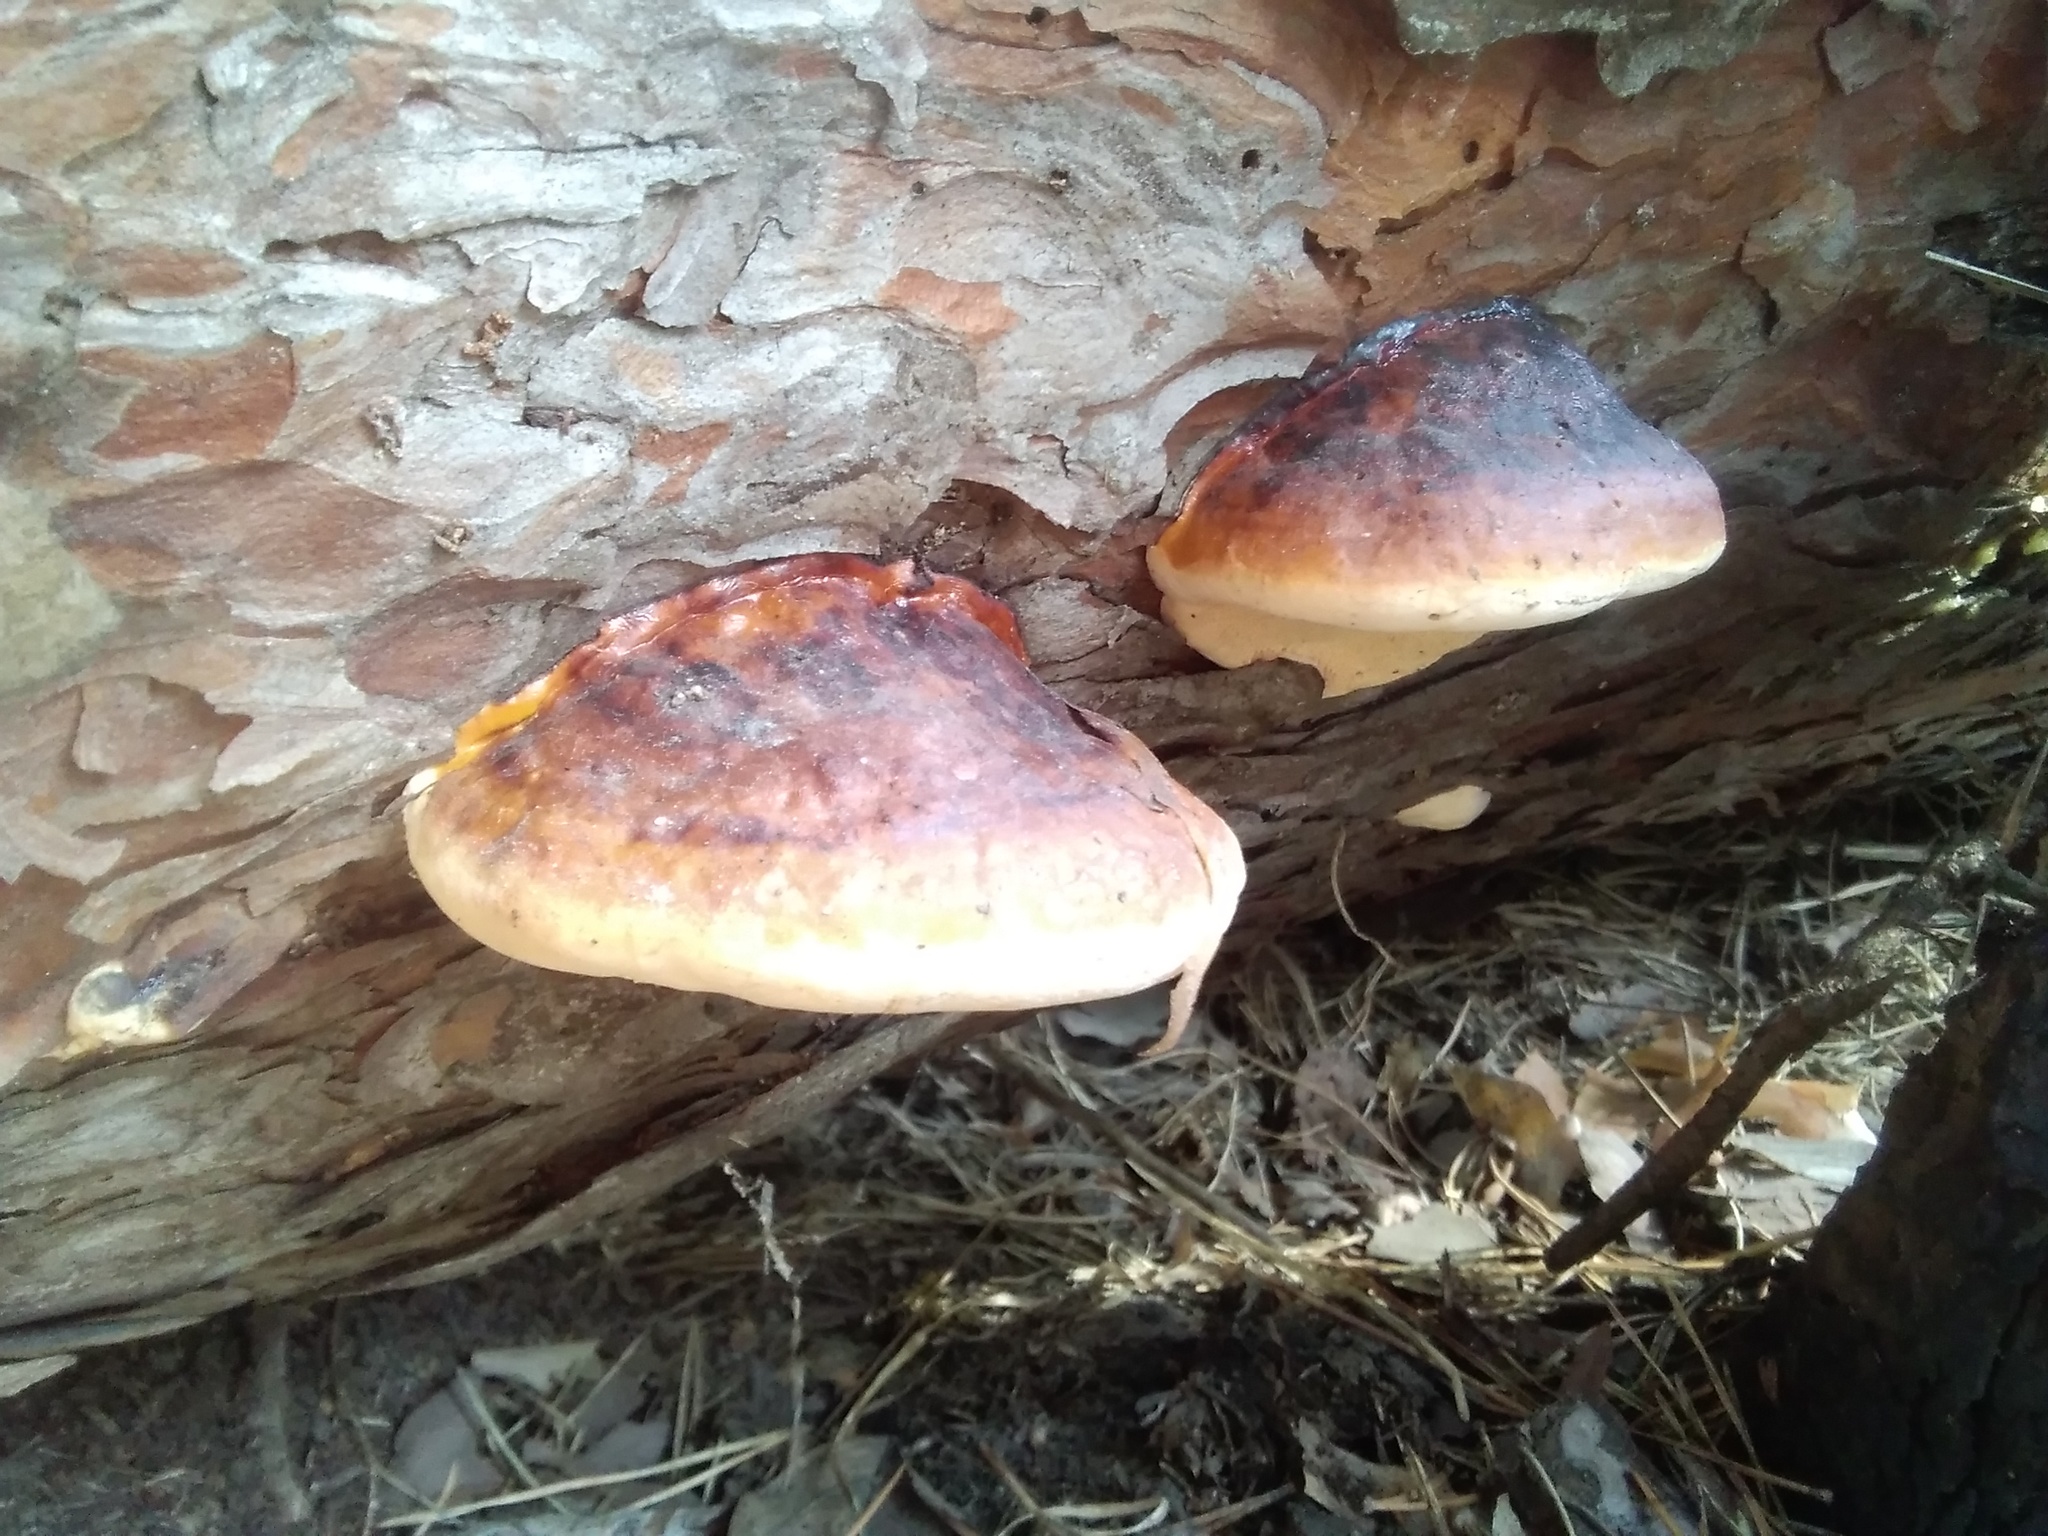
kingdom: Fungi
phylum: Basidiomycota
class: Agaricomycetes
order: Polyporales
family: Fomitopsidaceae
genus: Fomitopsis
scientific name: Fomitopsis pinicola
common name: Red-belted bracket
